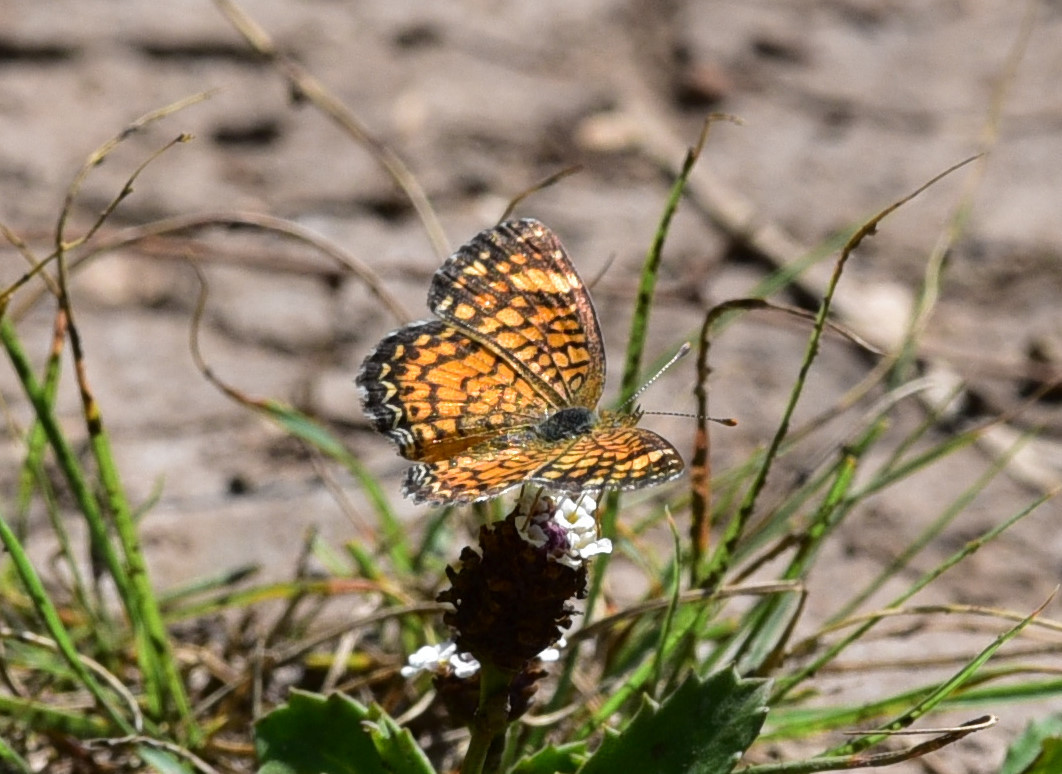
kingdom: Animalia
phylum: Arthropoda
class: Insecta
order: Lepidoptera
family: Nymphalidae
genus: Phyciodes
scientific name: Phyciodes vesta
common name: Vesta crescent
